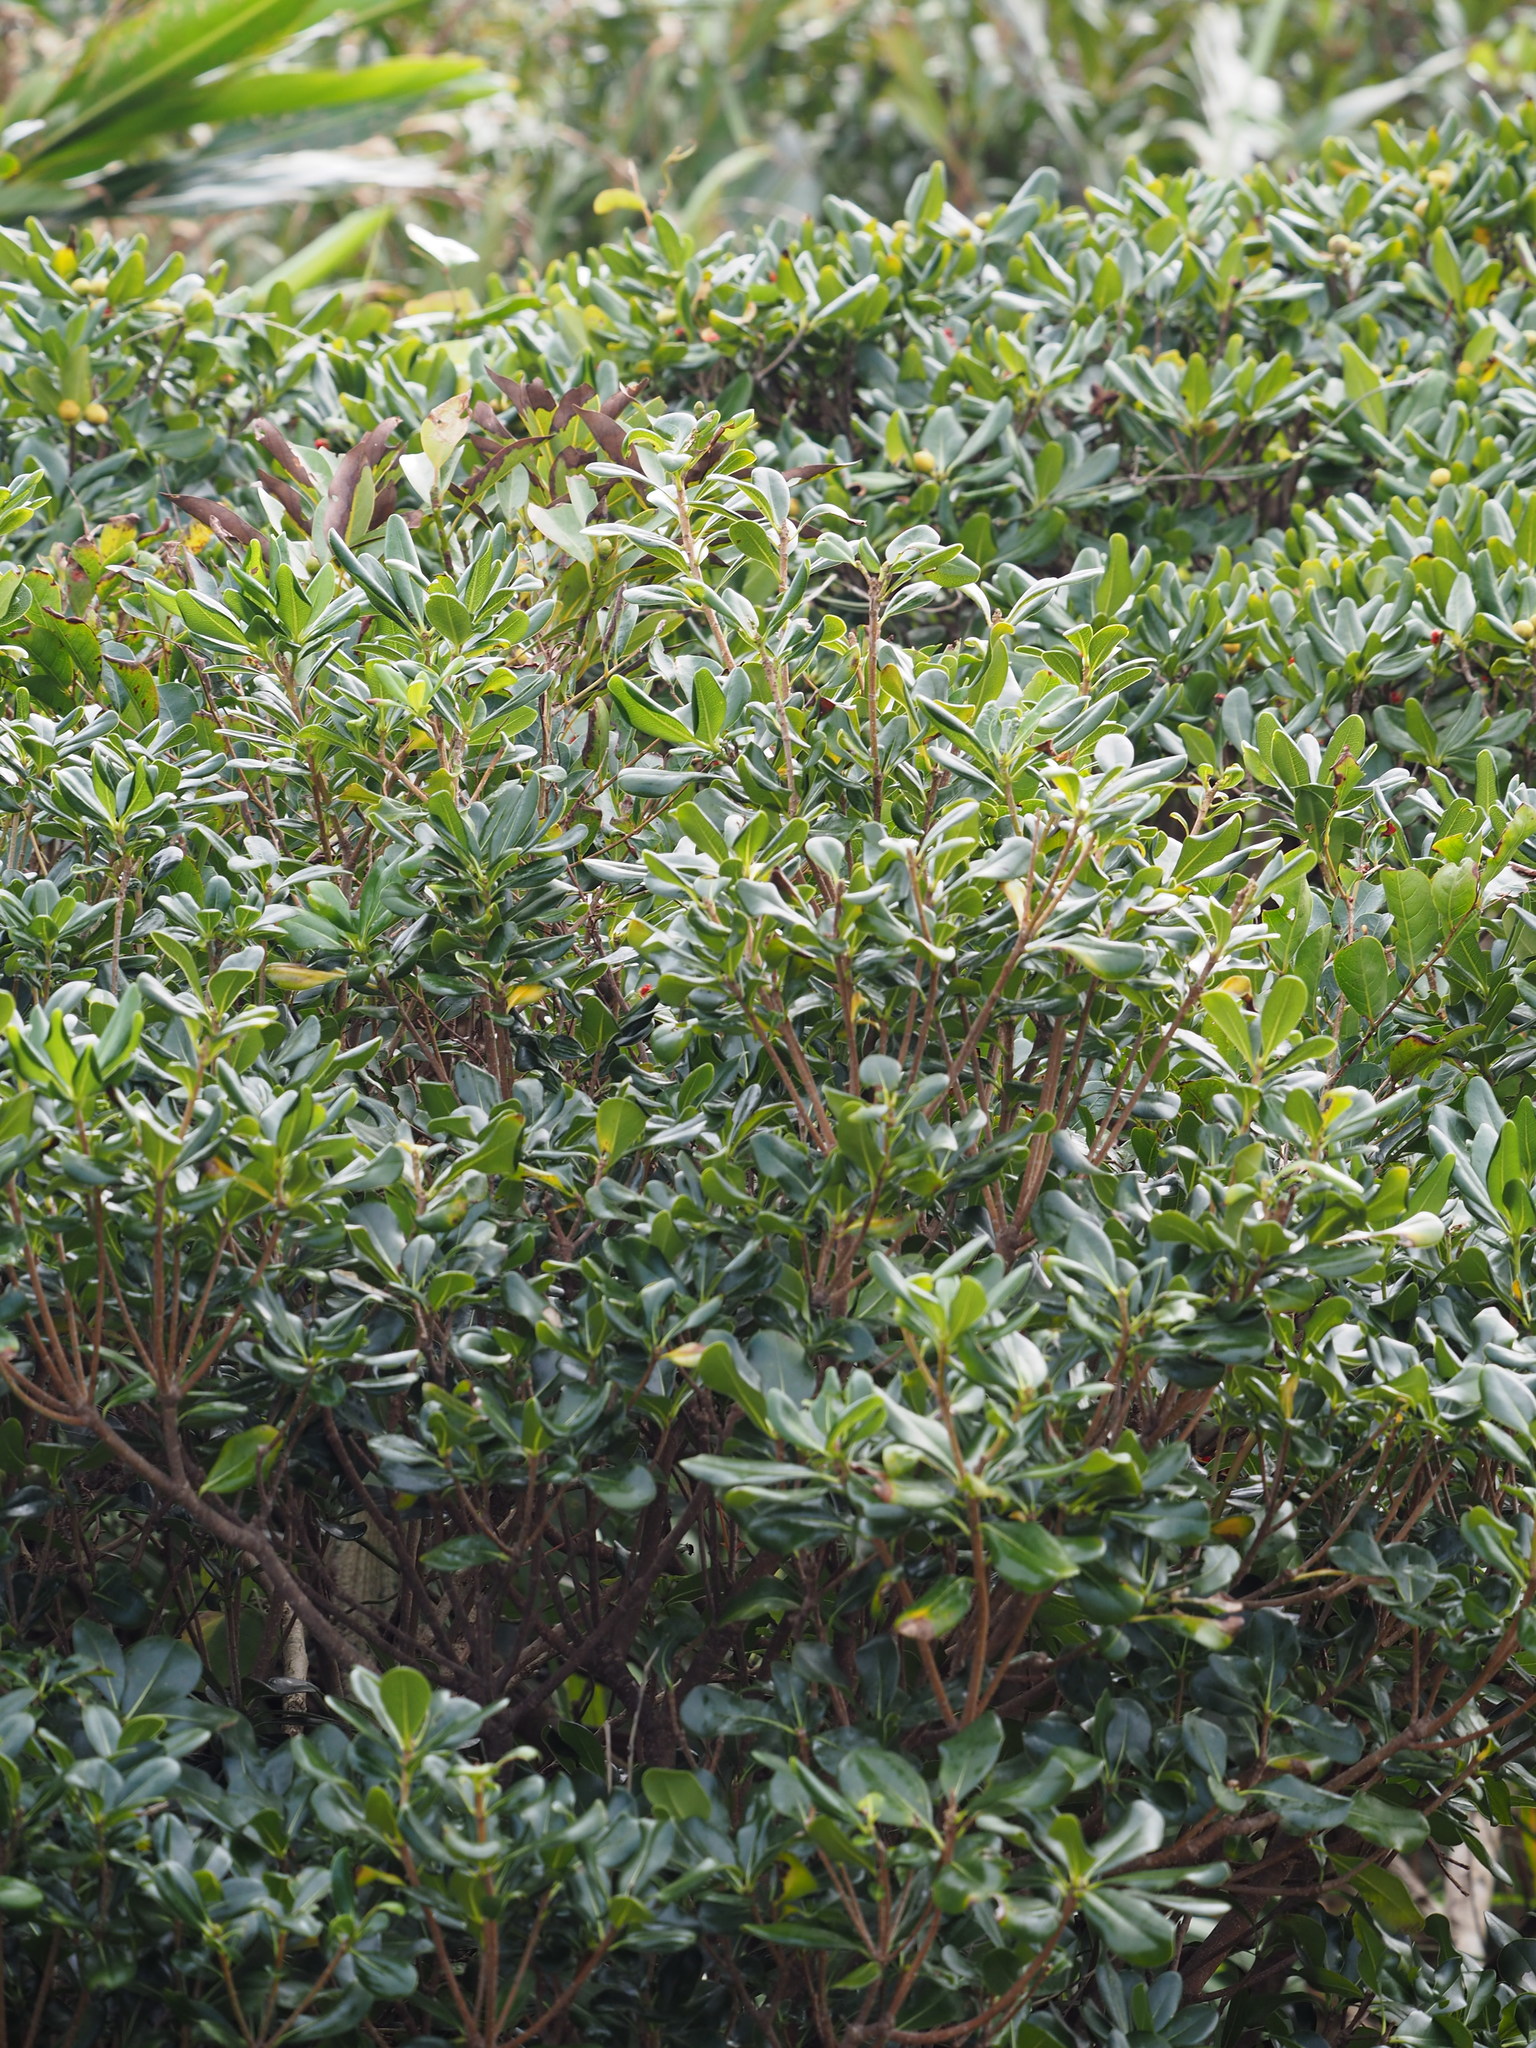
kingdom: Plantae
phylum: Tracheophyta
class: Magnoliopsida
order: Apiales
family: Pittosporaceae
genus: Pittosporum
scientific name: Pittosporum tobira
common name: Japanese cheesewood
